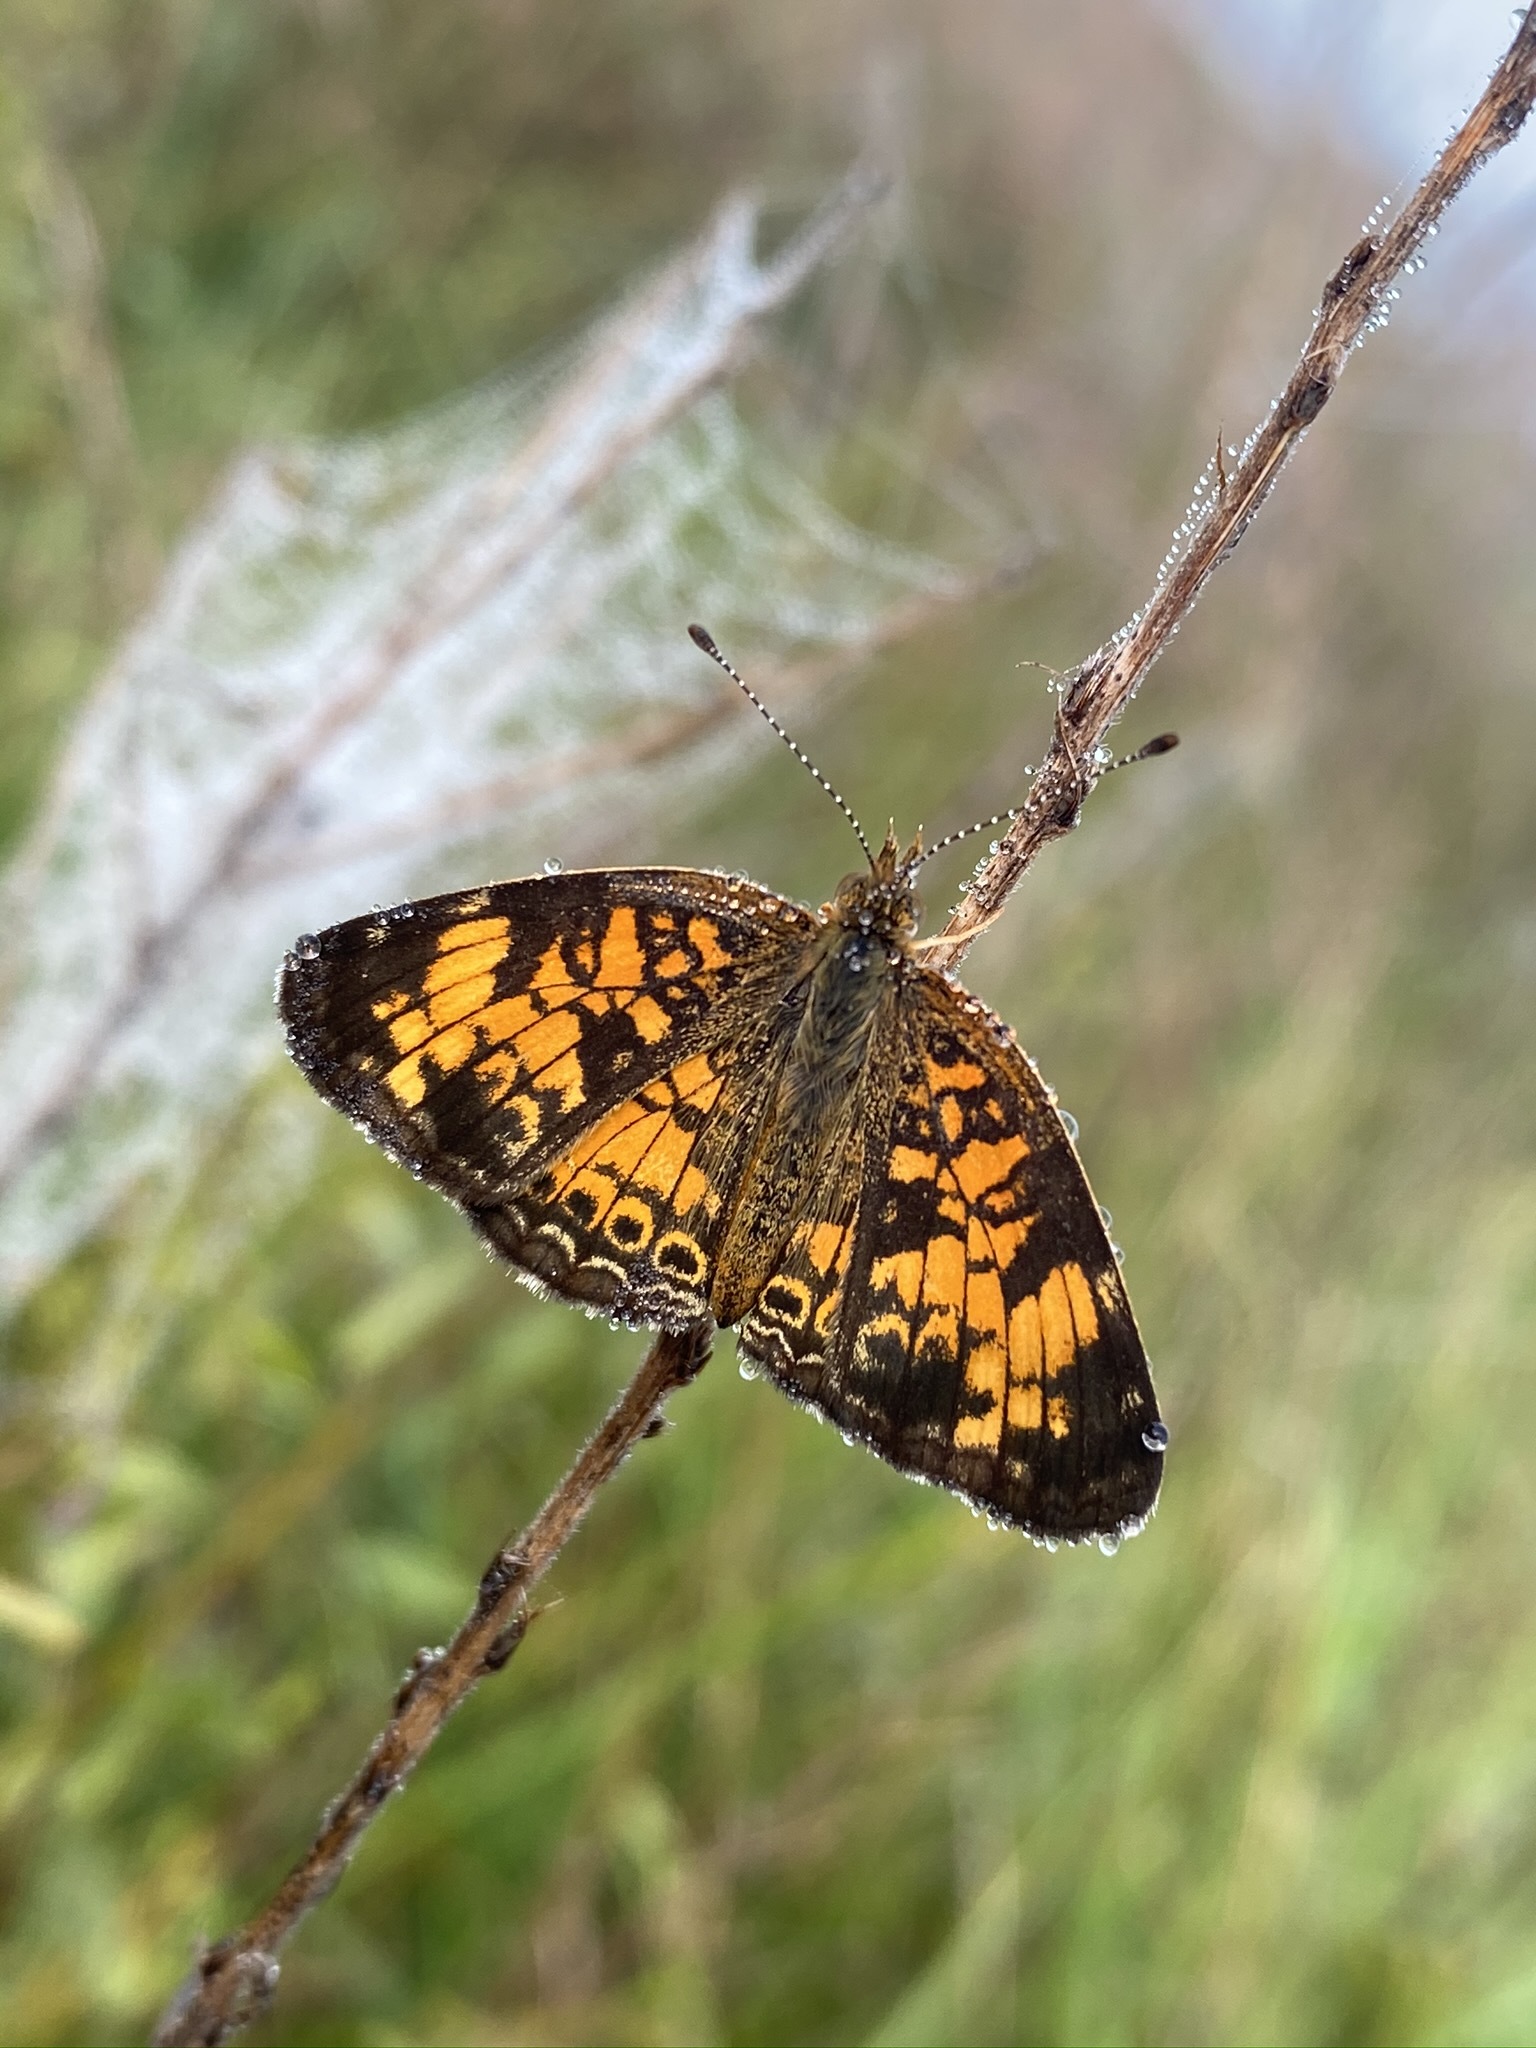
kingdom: Animalia
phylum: Arthropoda
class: Insecta
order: Lepidoptera
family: Nymphalidae
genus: Phyciodes
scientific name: Phyciodes tharos
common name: Pearl crescent
